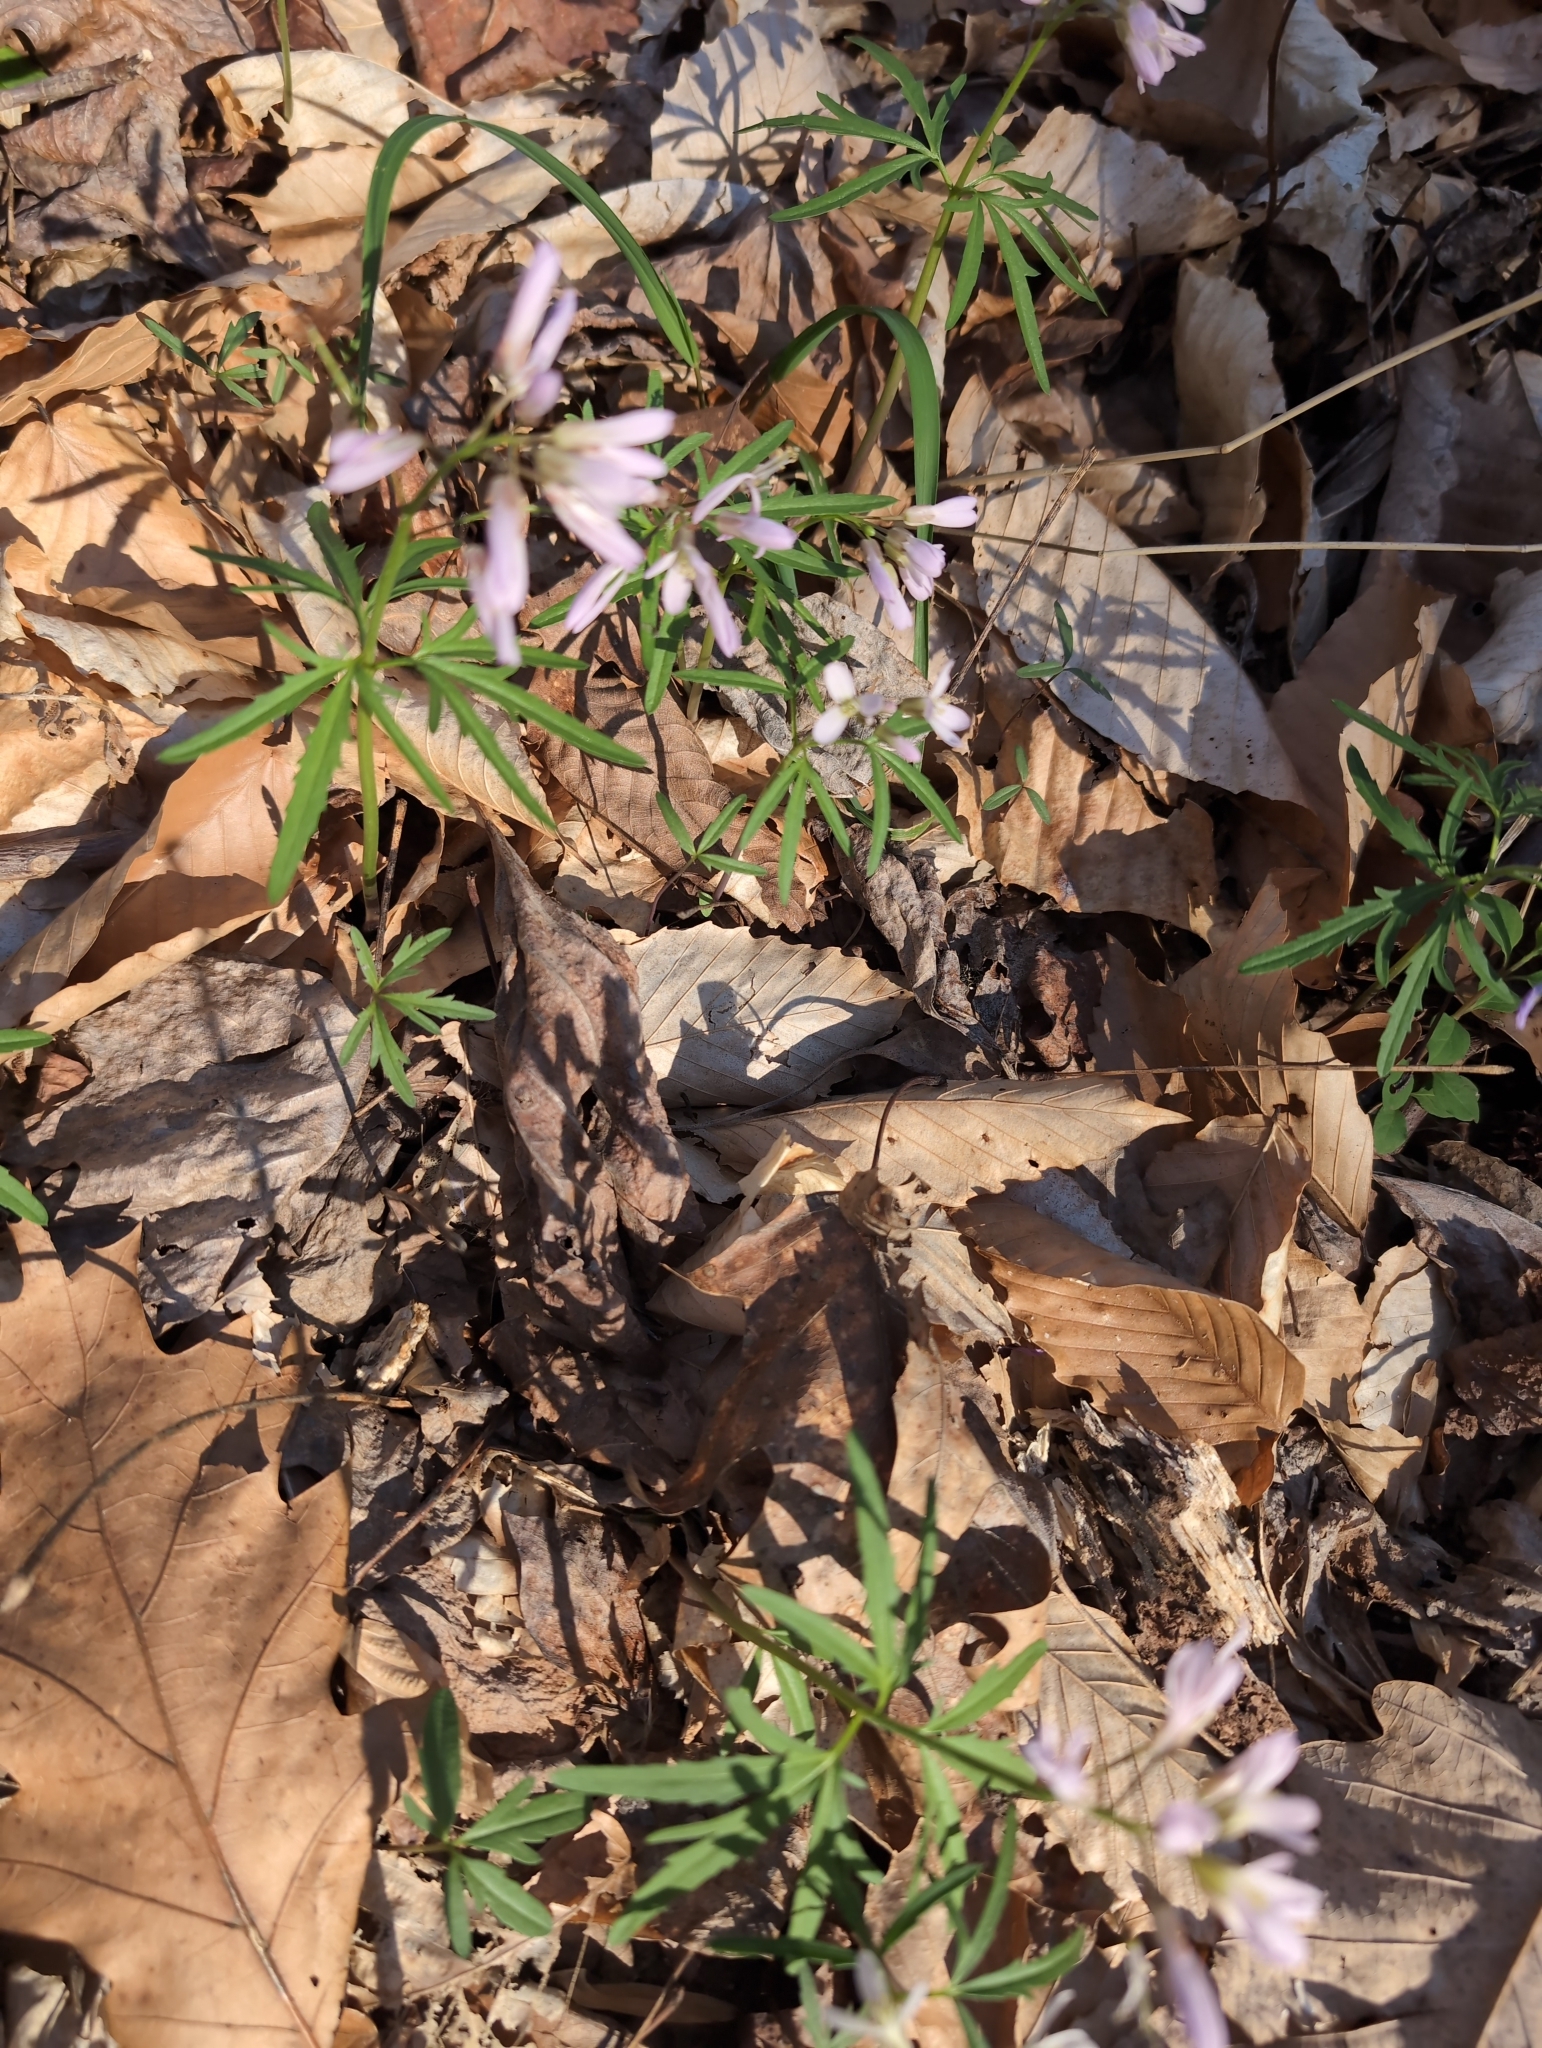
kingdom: Plantae
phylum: Tracheophyta
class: Magnoliopsida
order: Brassicales
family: Brassicaceae
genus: Cardamine
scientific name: Cardamine concatenata
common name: Cut-leaf toothcup
